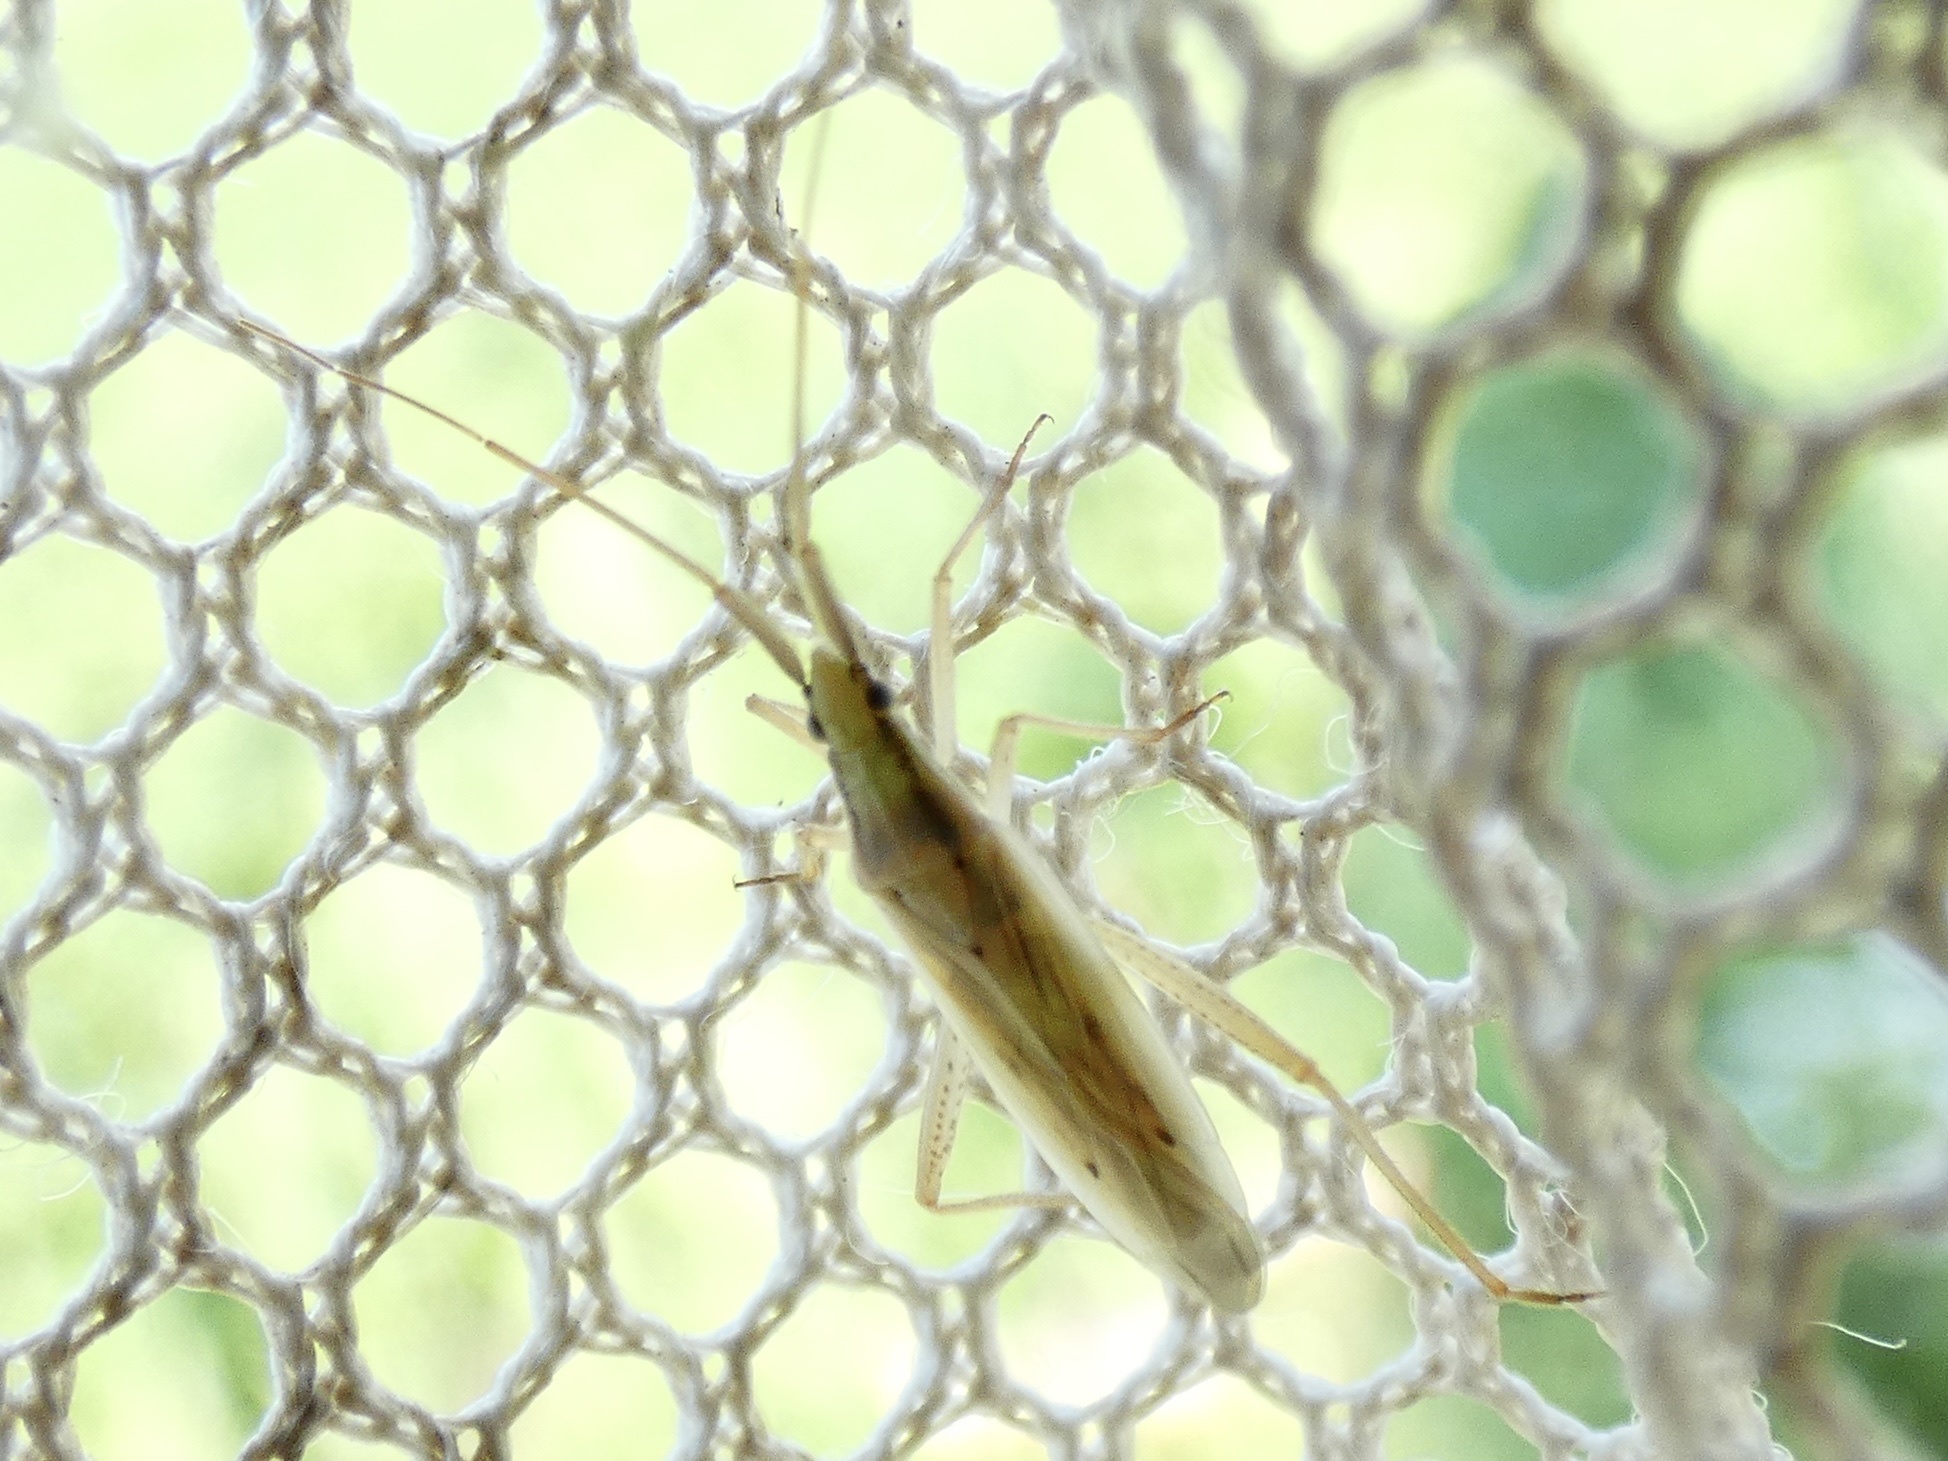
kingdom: Animalia
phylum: Arthropoda
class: Insecta
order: Hemiptera
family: Miridae
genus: Stenodema
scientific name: Stenodema laevigata
